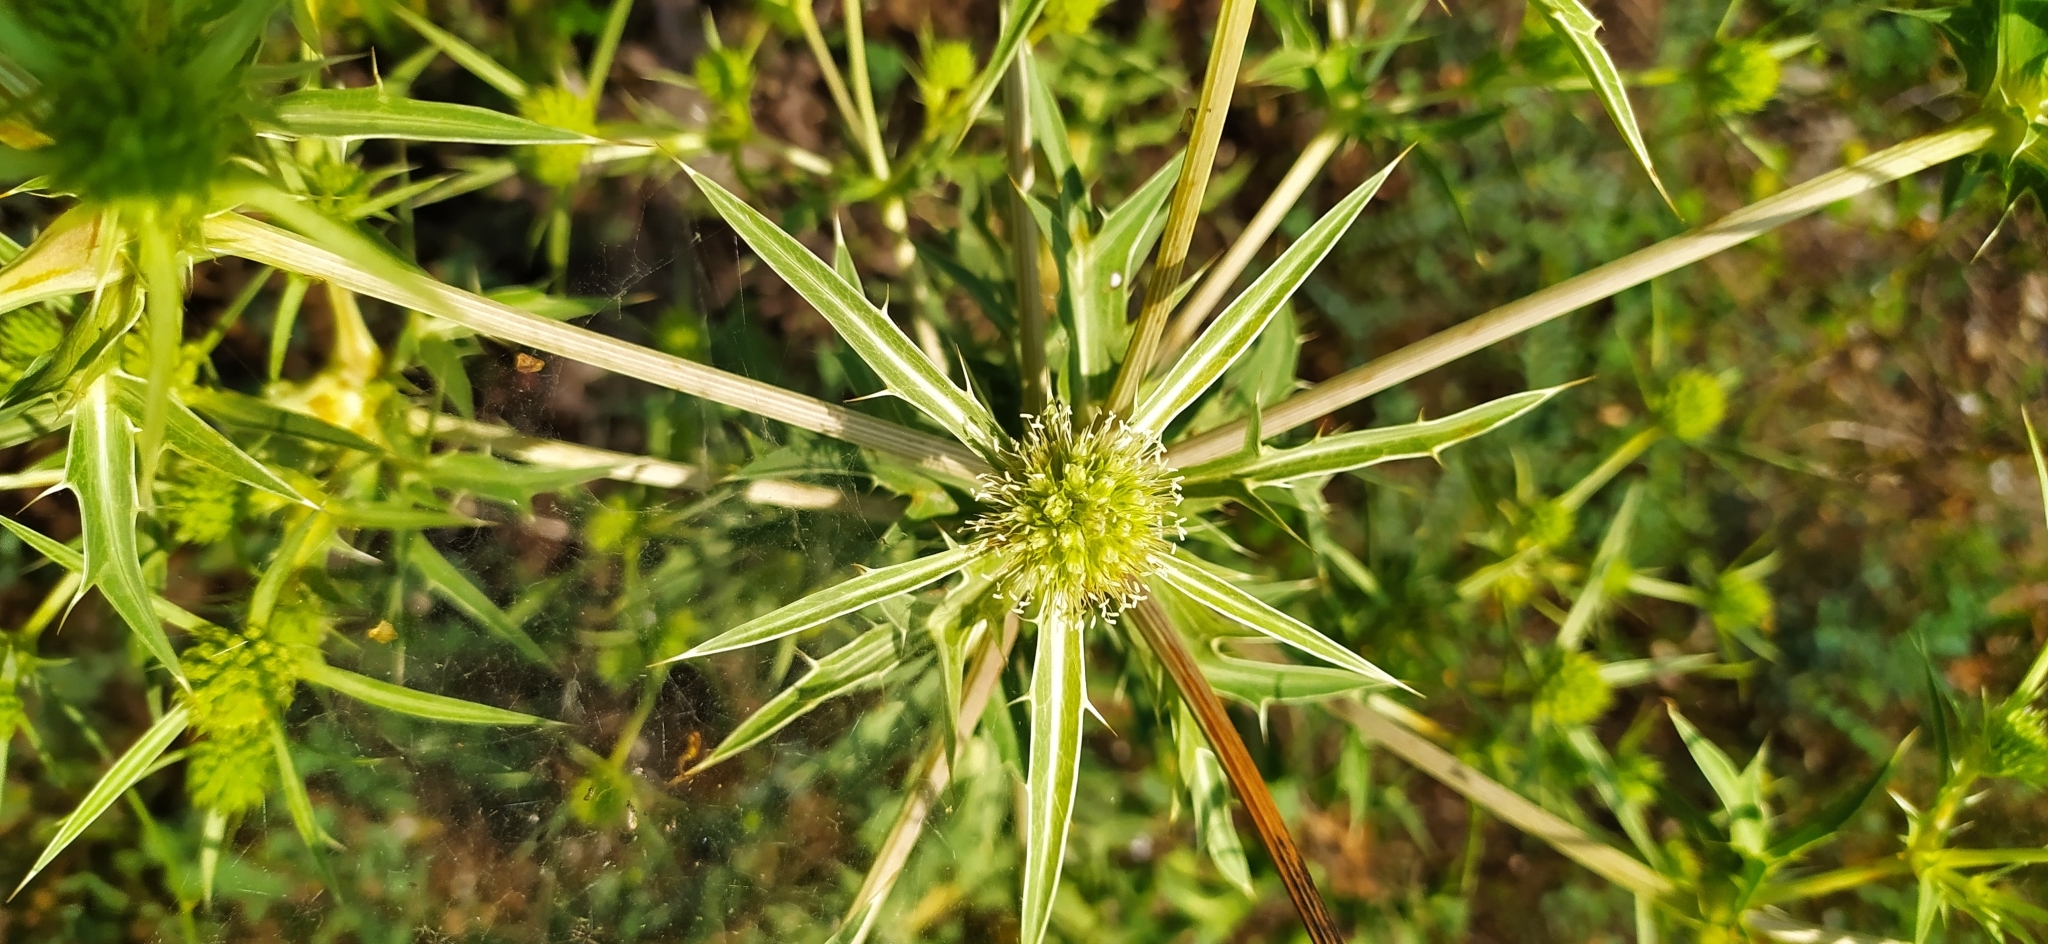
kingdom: Plantae
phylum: Tracheophyta
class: Magnoliopsida
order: Apiales
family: Apiaceae
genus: Eryngium
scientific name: Eryngium campestre
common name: Field eryngo
